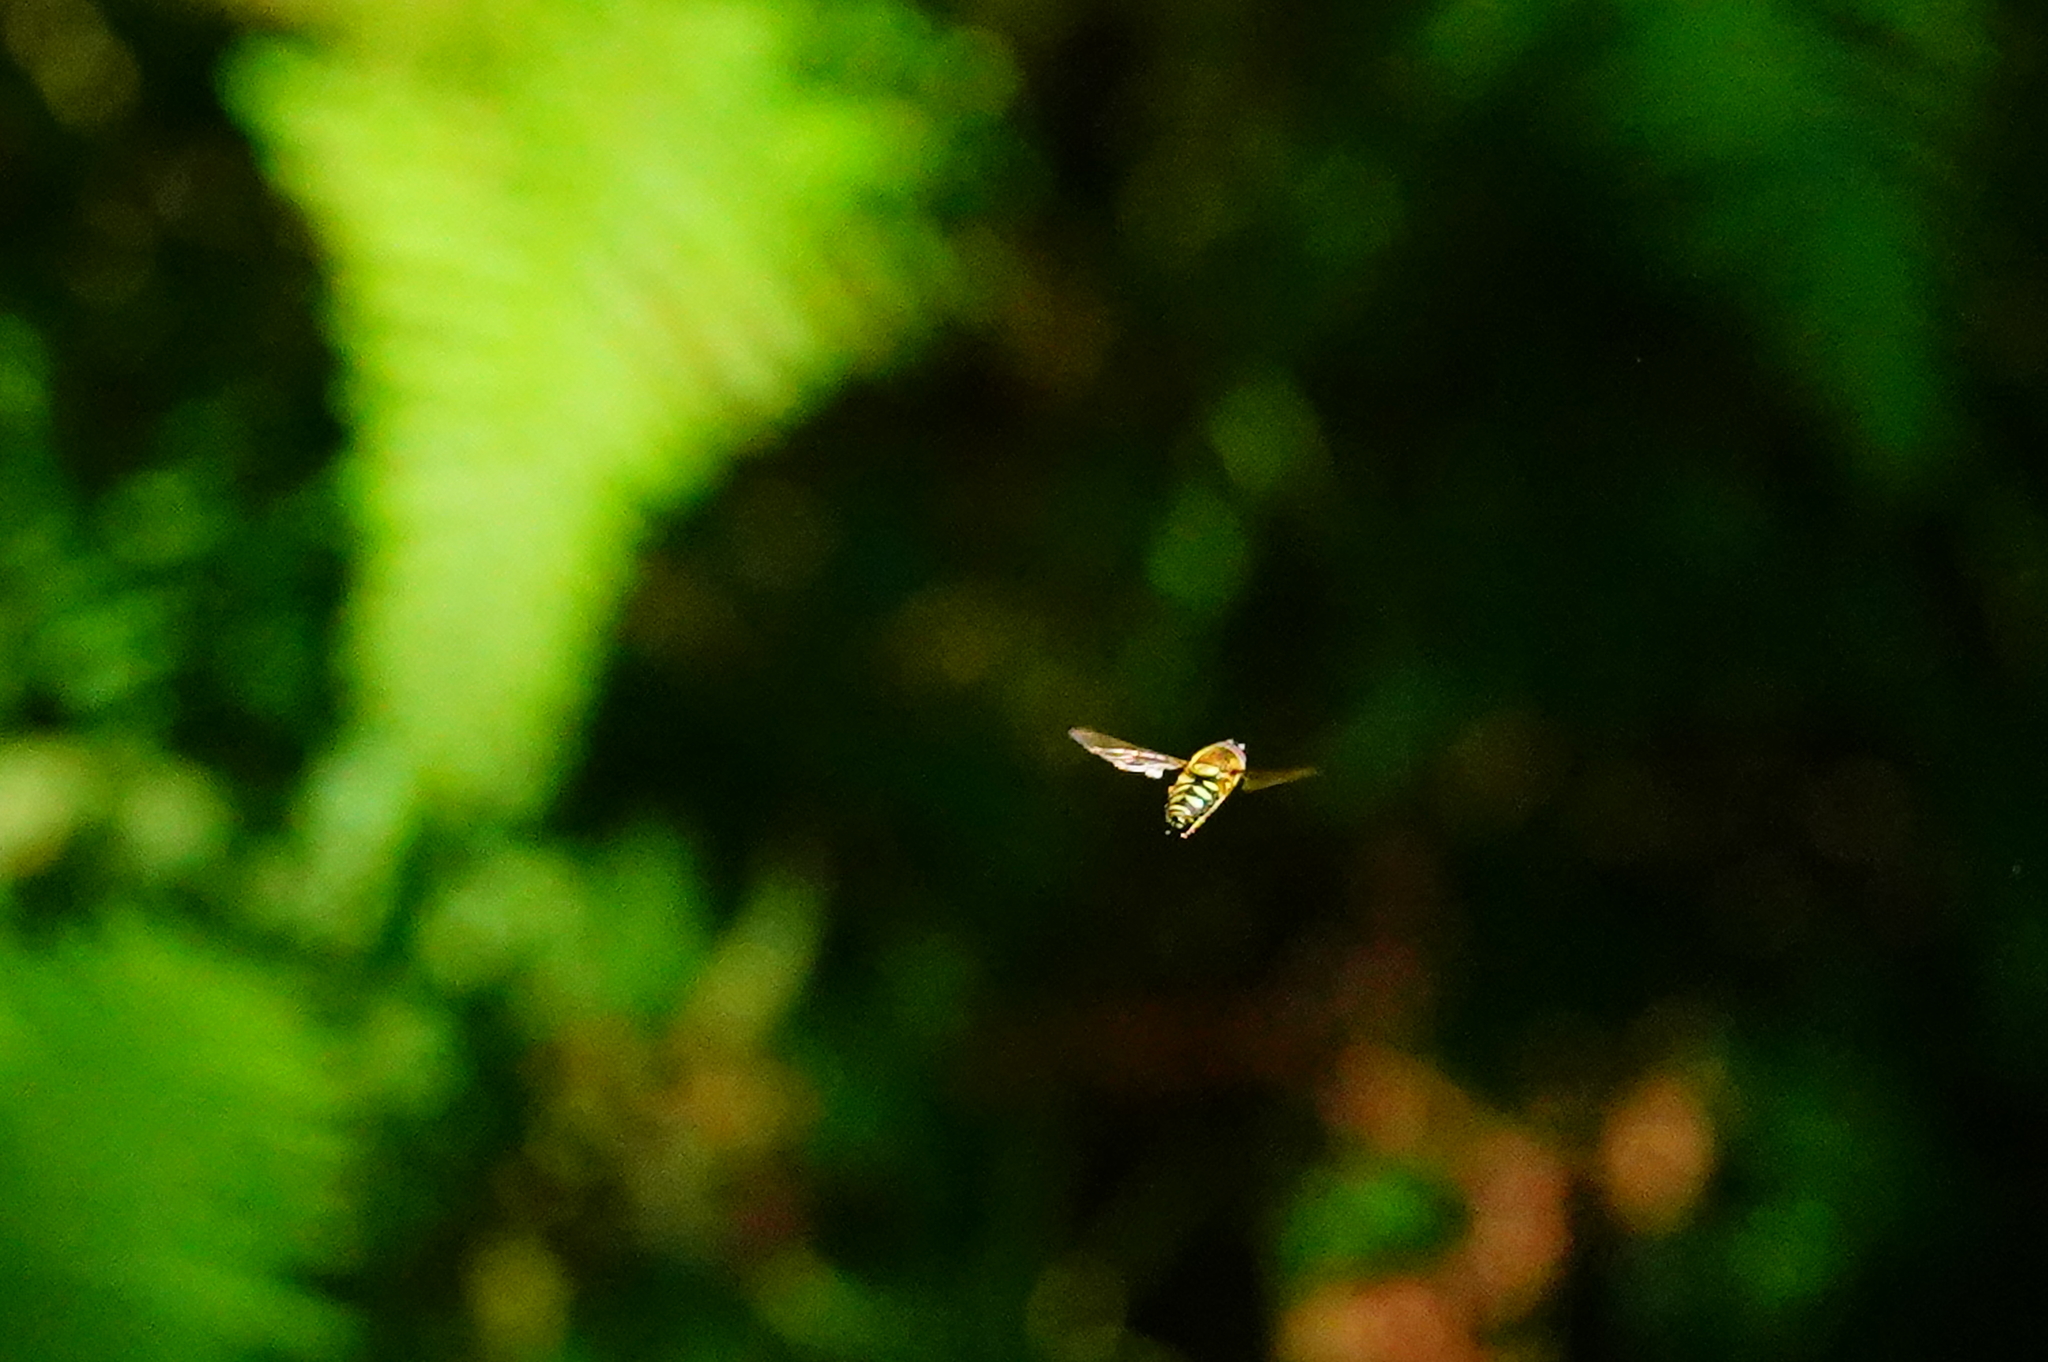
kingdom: Animalia
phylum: Arthropoda
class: Insecta
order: Diptera
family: Syrphidae
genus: Syrphus
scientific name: Syrphus opinator
